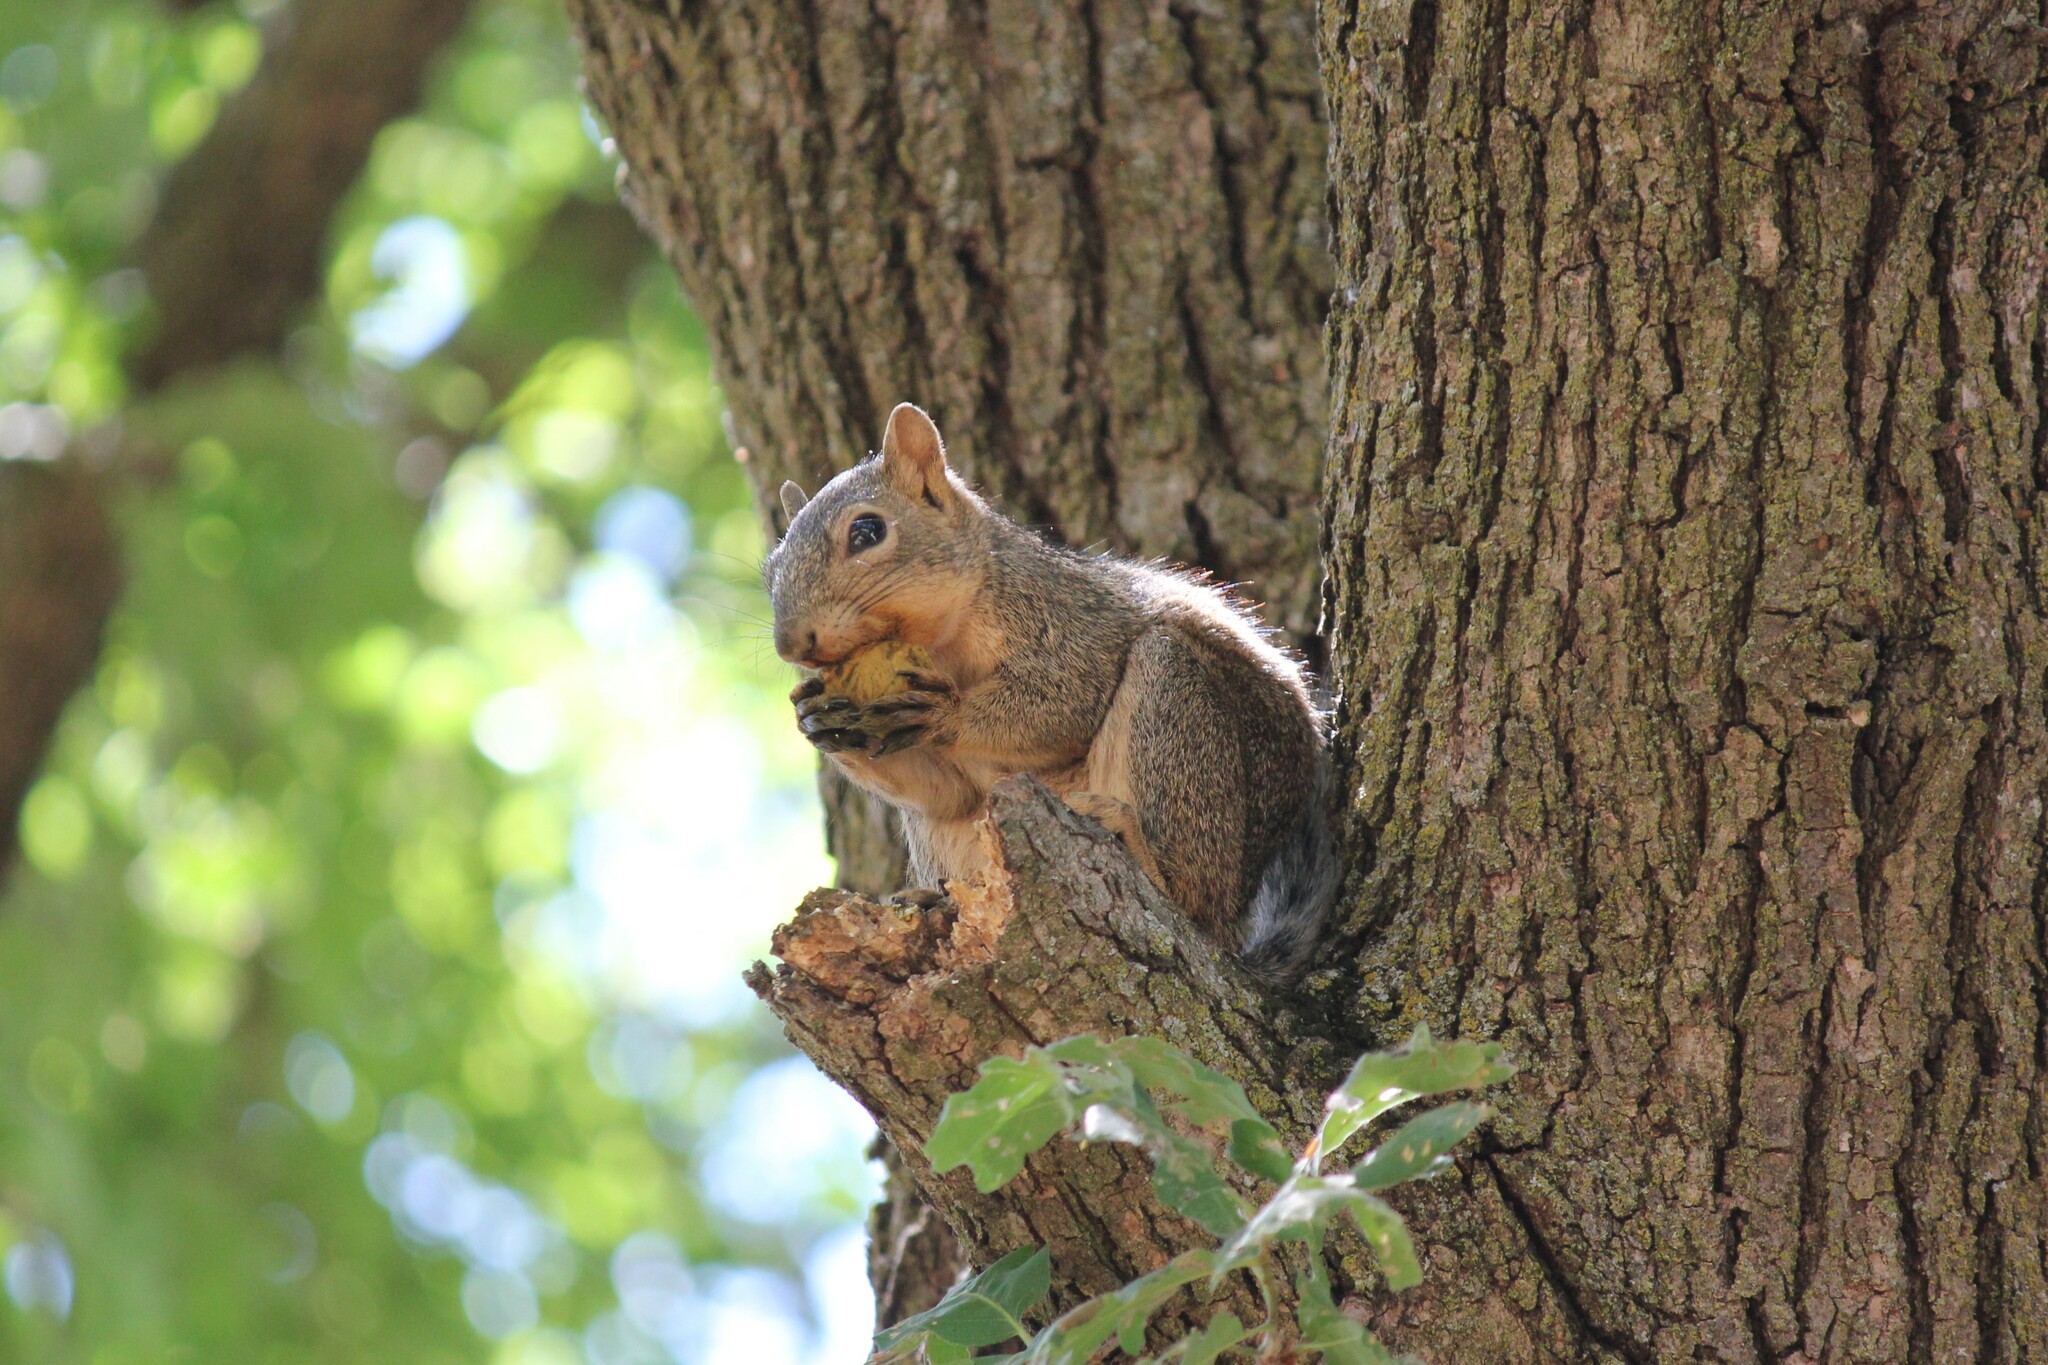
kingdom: Animalia
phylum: Chordata
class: Mammalia
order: Rodentia
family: Sciuridae
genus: Sciurus
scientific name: Sciurus niger
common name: Fox squirrel
